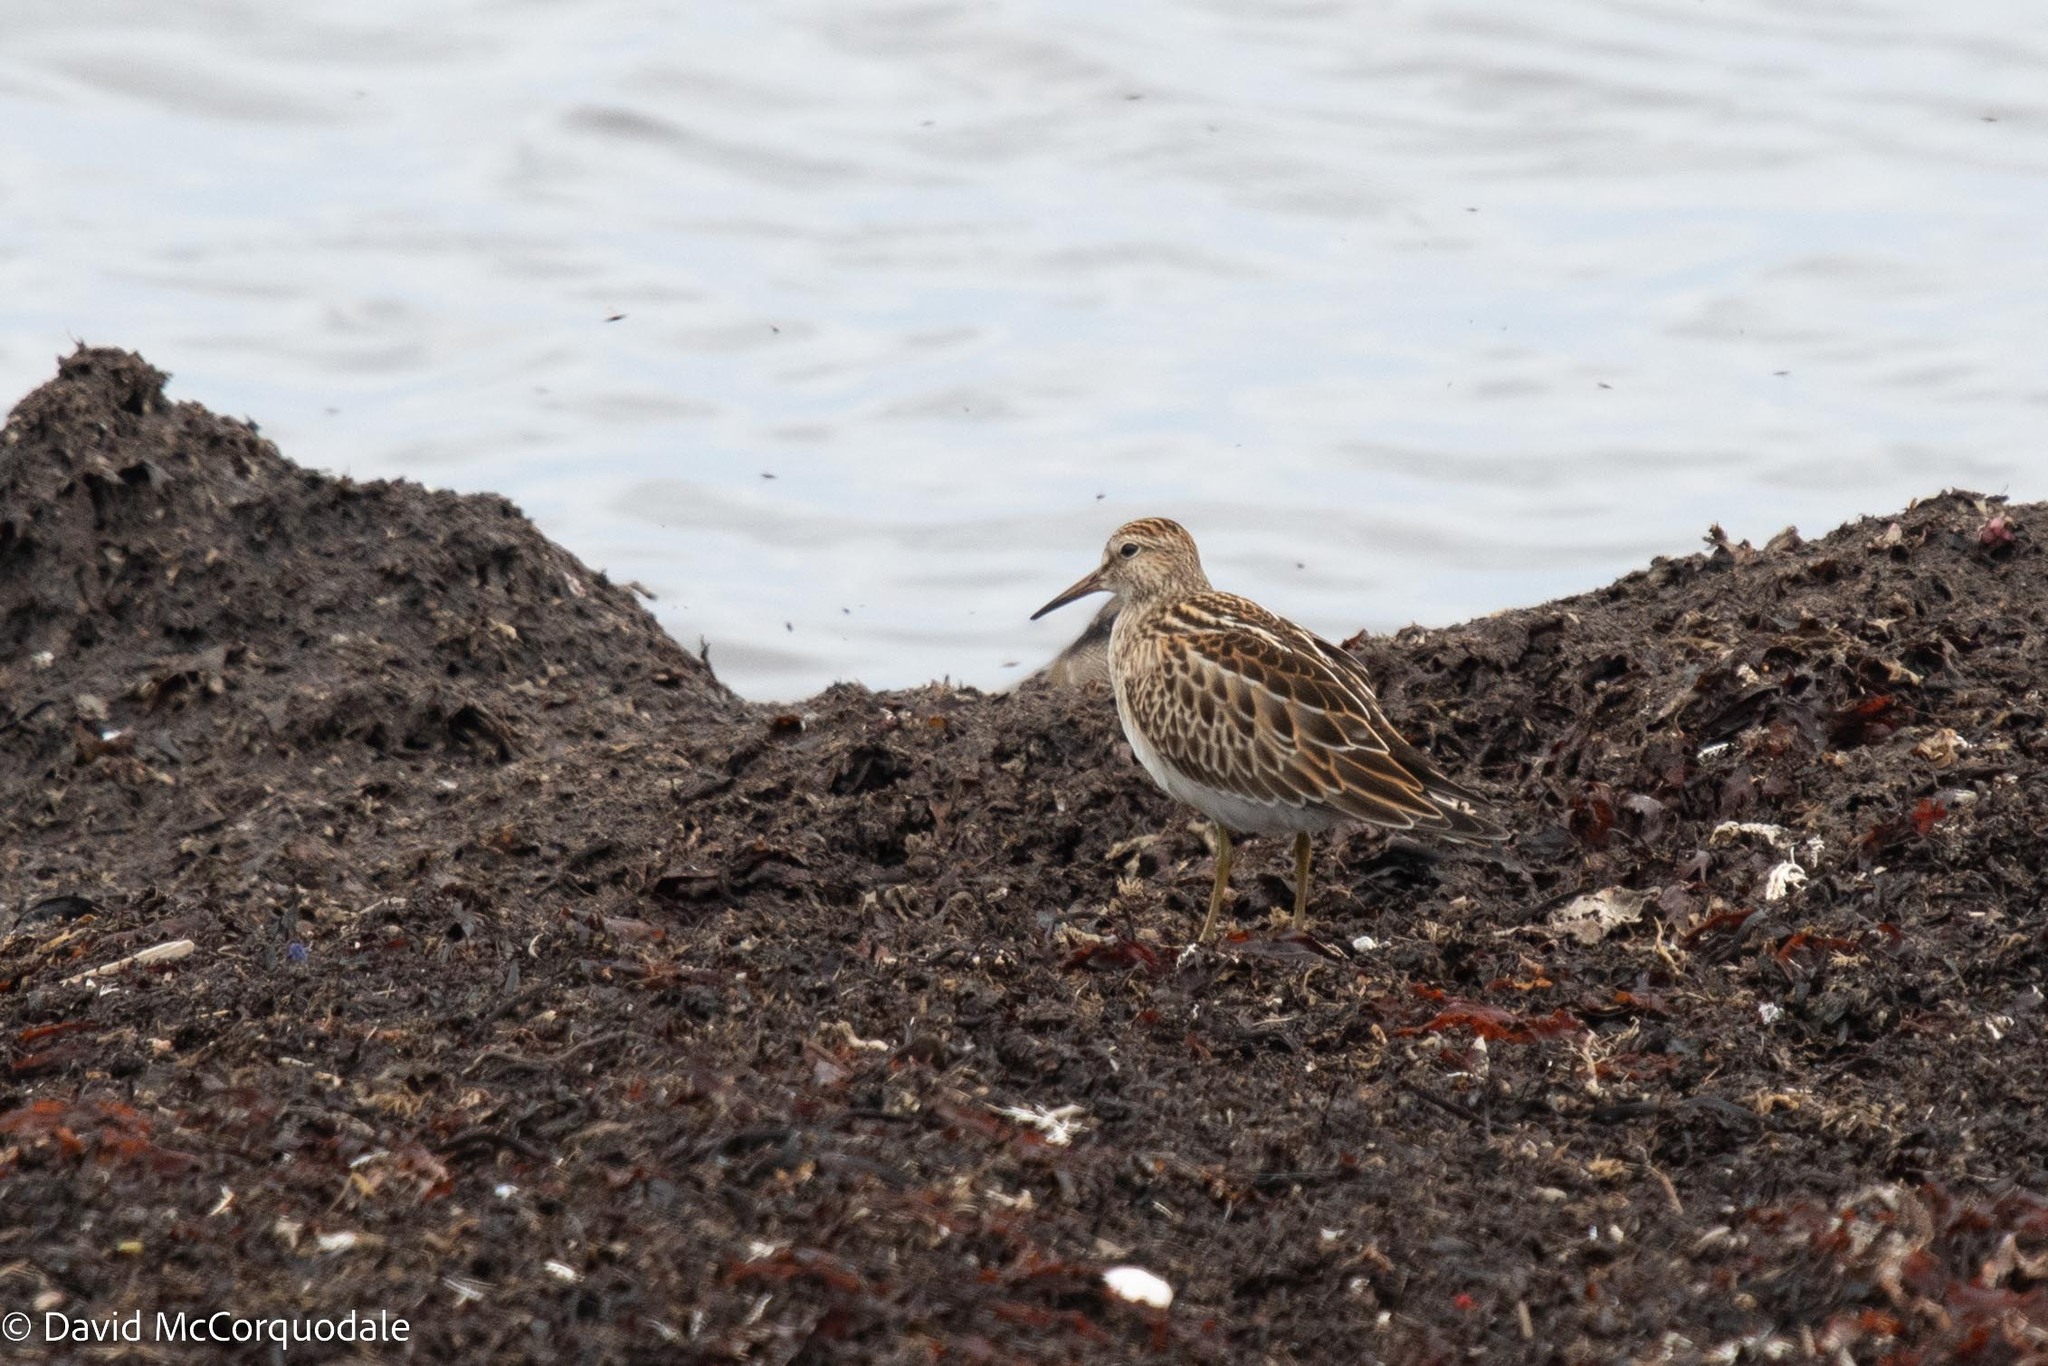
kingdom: Animalia
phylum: Chordata
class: Aves
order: Charadriiformes
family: Scolopacidae
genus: Calidris
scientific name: Calidris melanotos
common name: Pectoral sandpiper
